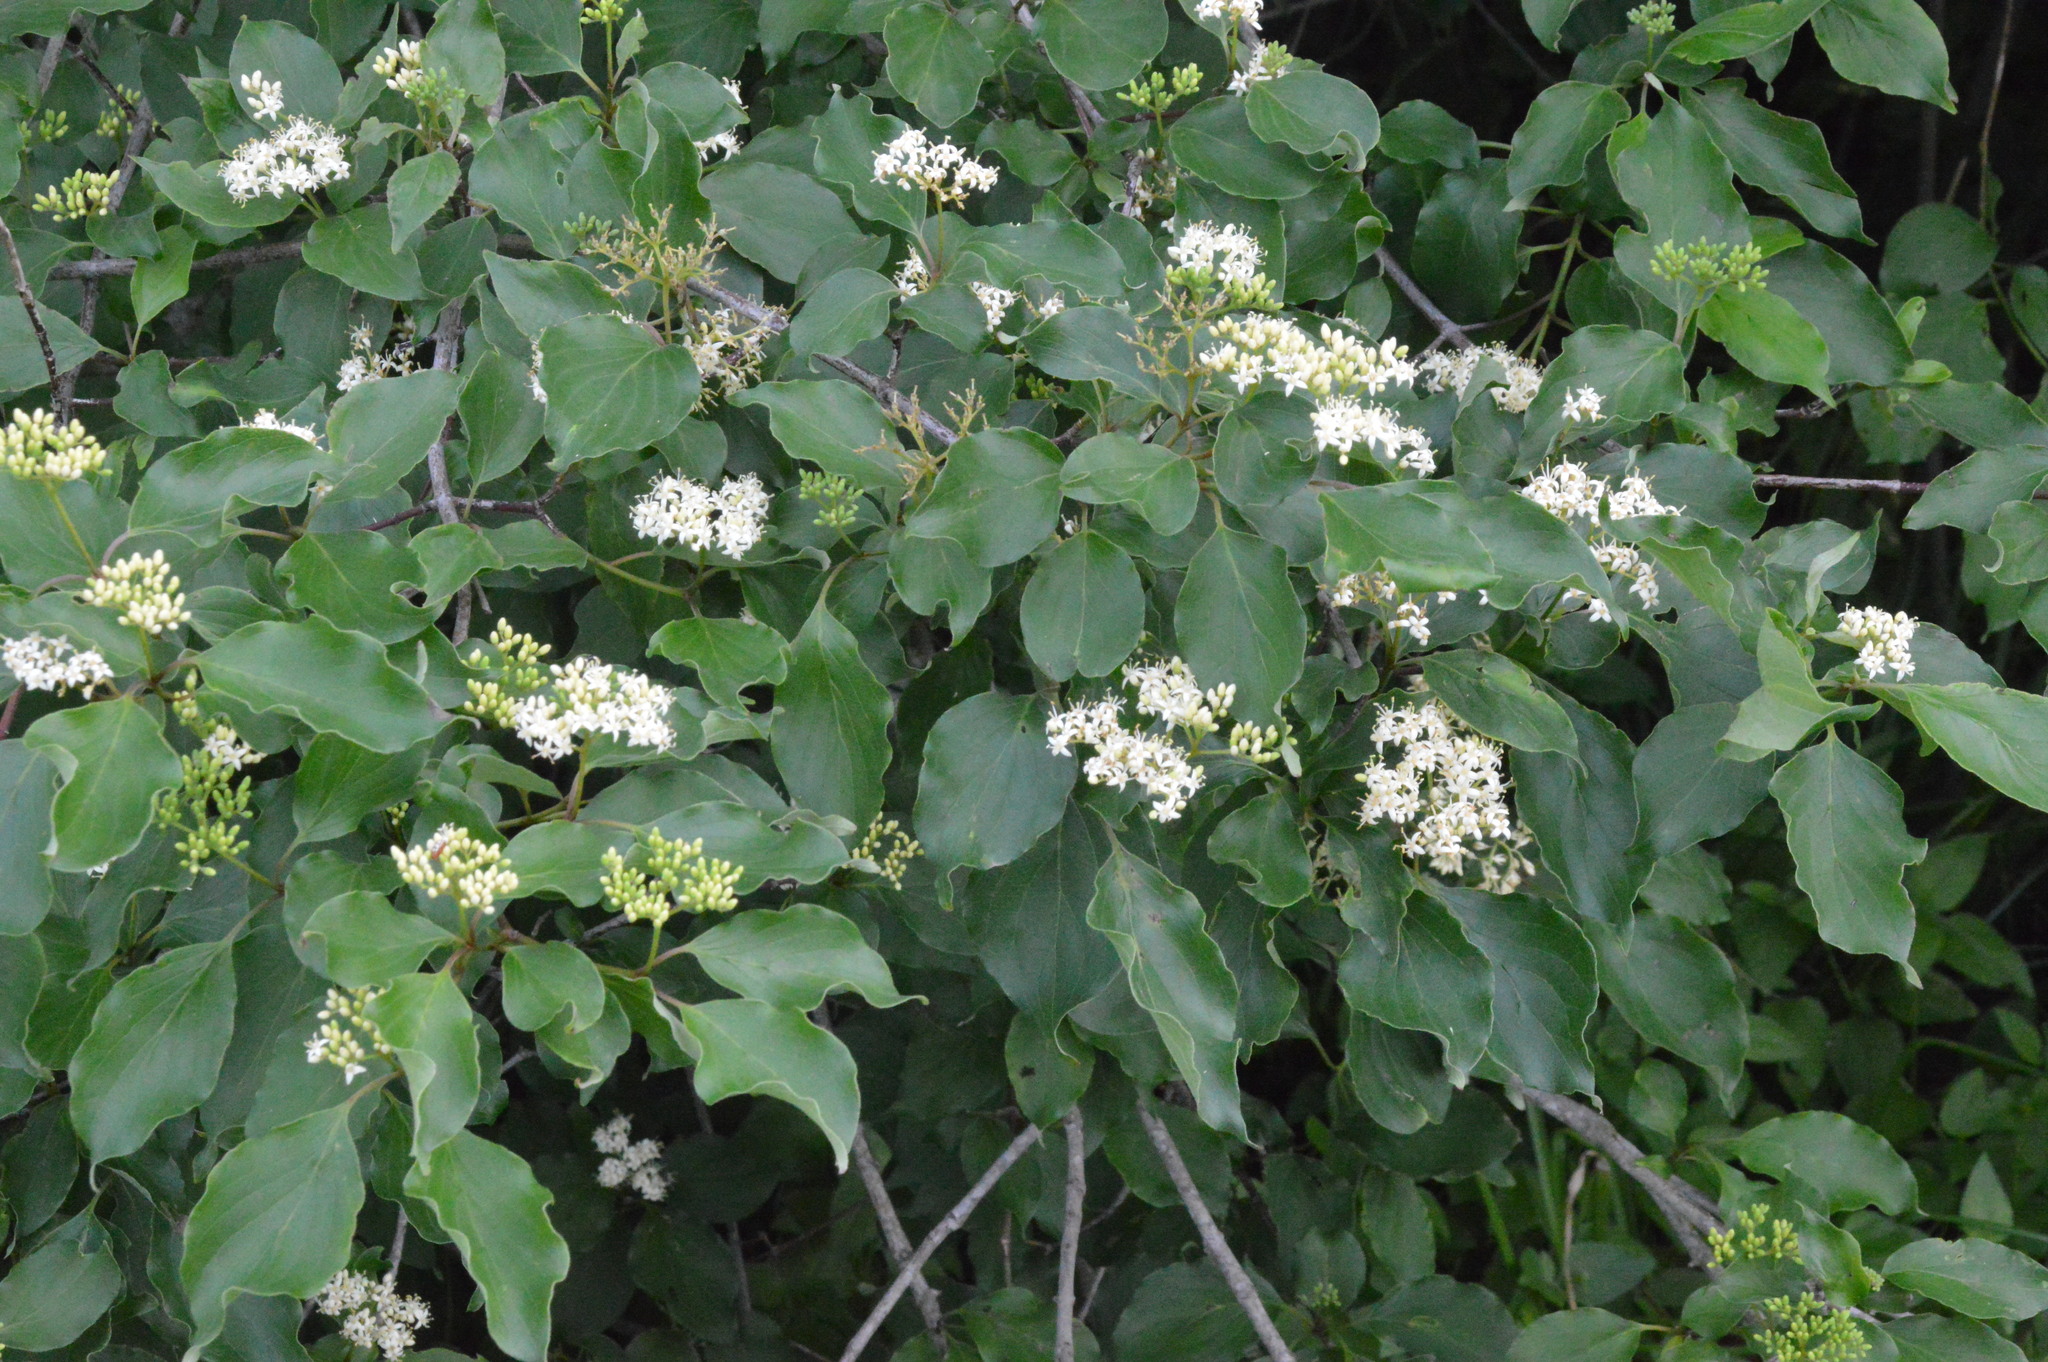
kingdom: Plantae
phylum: Tracheophyta
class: Magnoliopsida
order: Cornales
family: Cornaceae
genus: Cornus
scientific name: Cornus drummondii
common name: Rough-leaf dogwood
